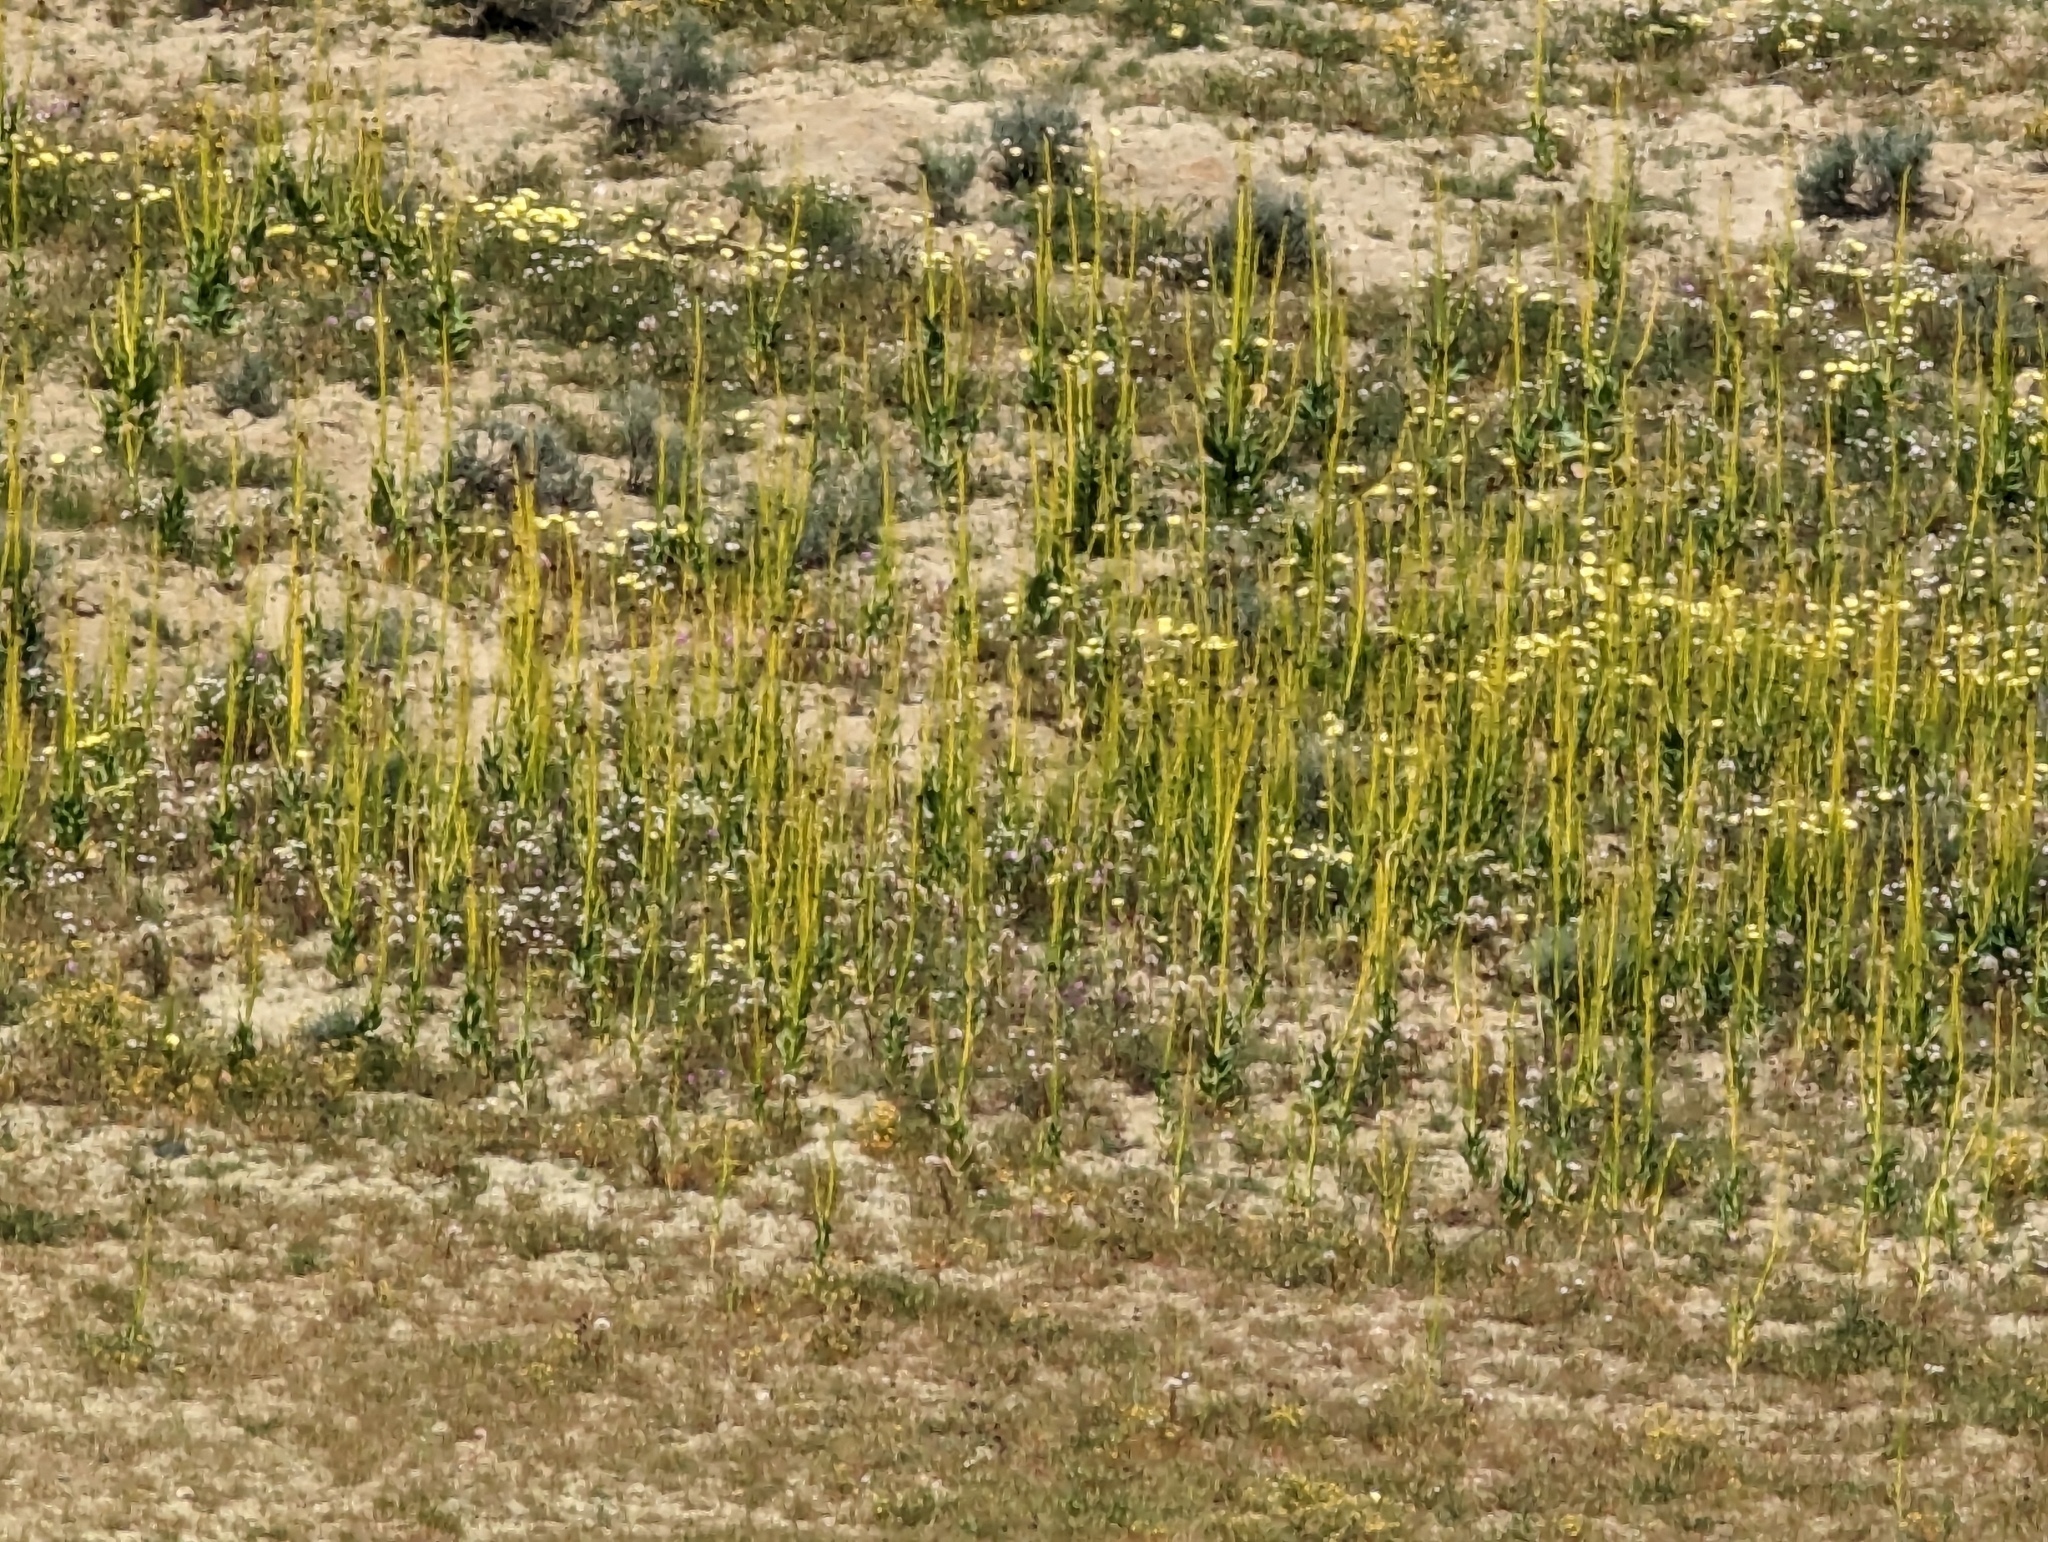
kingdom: Plantae
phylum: Tracheophyta
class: Magnoliopsida
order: Brassicales
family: Brassicaceae
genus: Streptanthus
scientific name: Streptanthus inflatus
